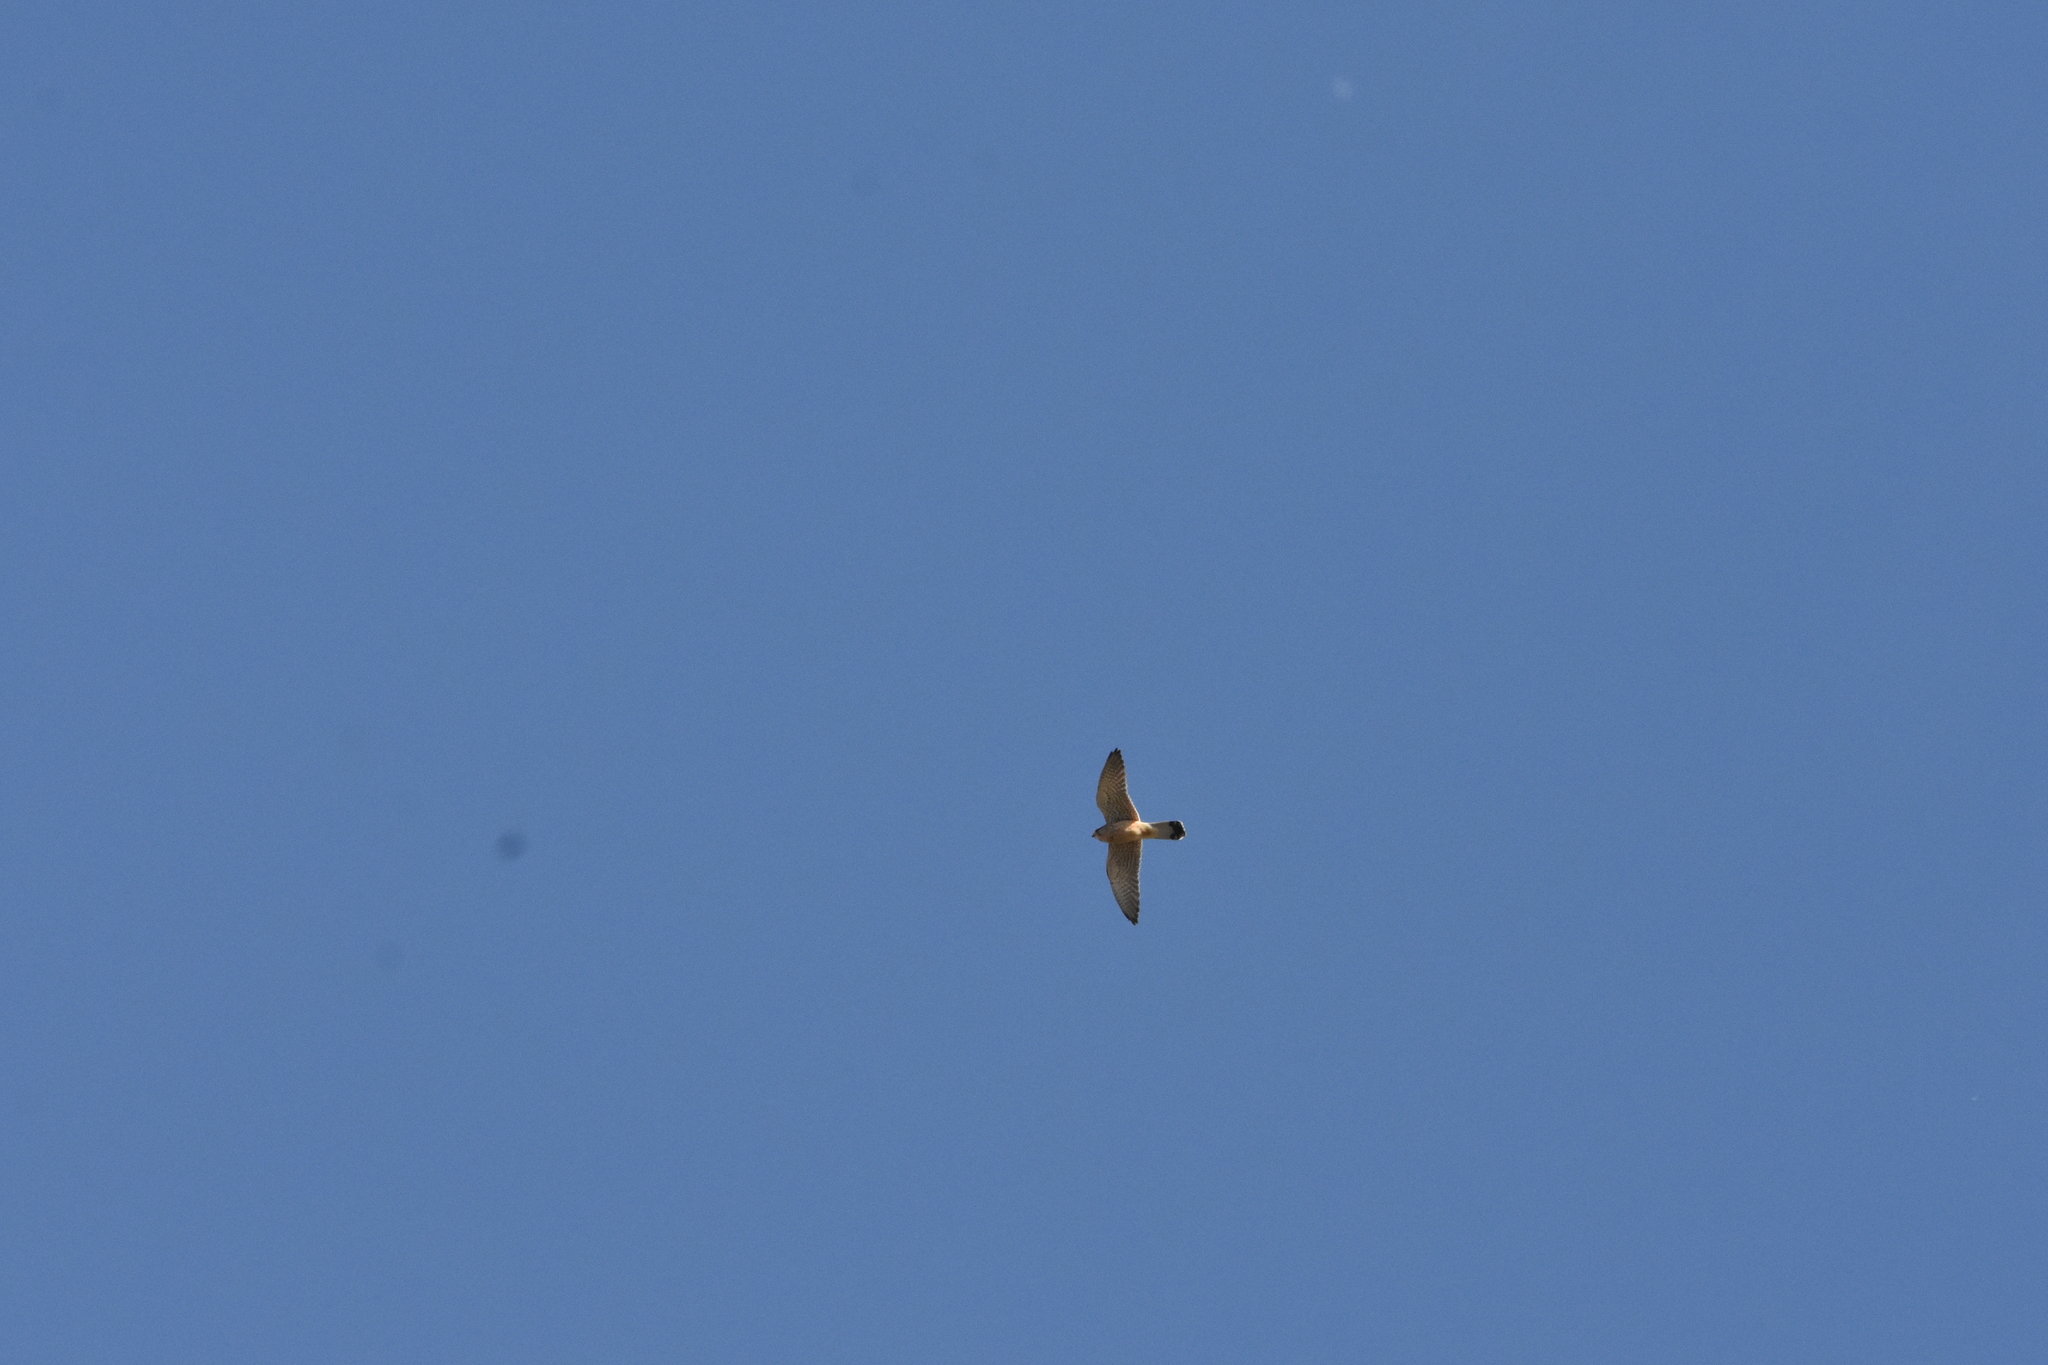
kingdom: Animalia
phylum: Chordata
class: Aves
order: Falconiformes
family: Falconidae
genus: Falco
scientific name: Falco tinnunculus
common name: Common kestrel
